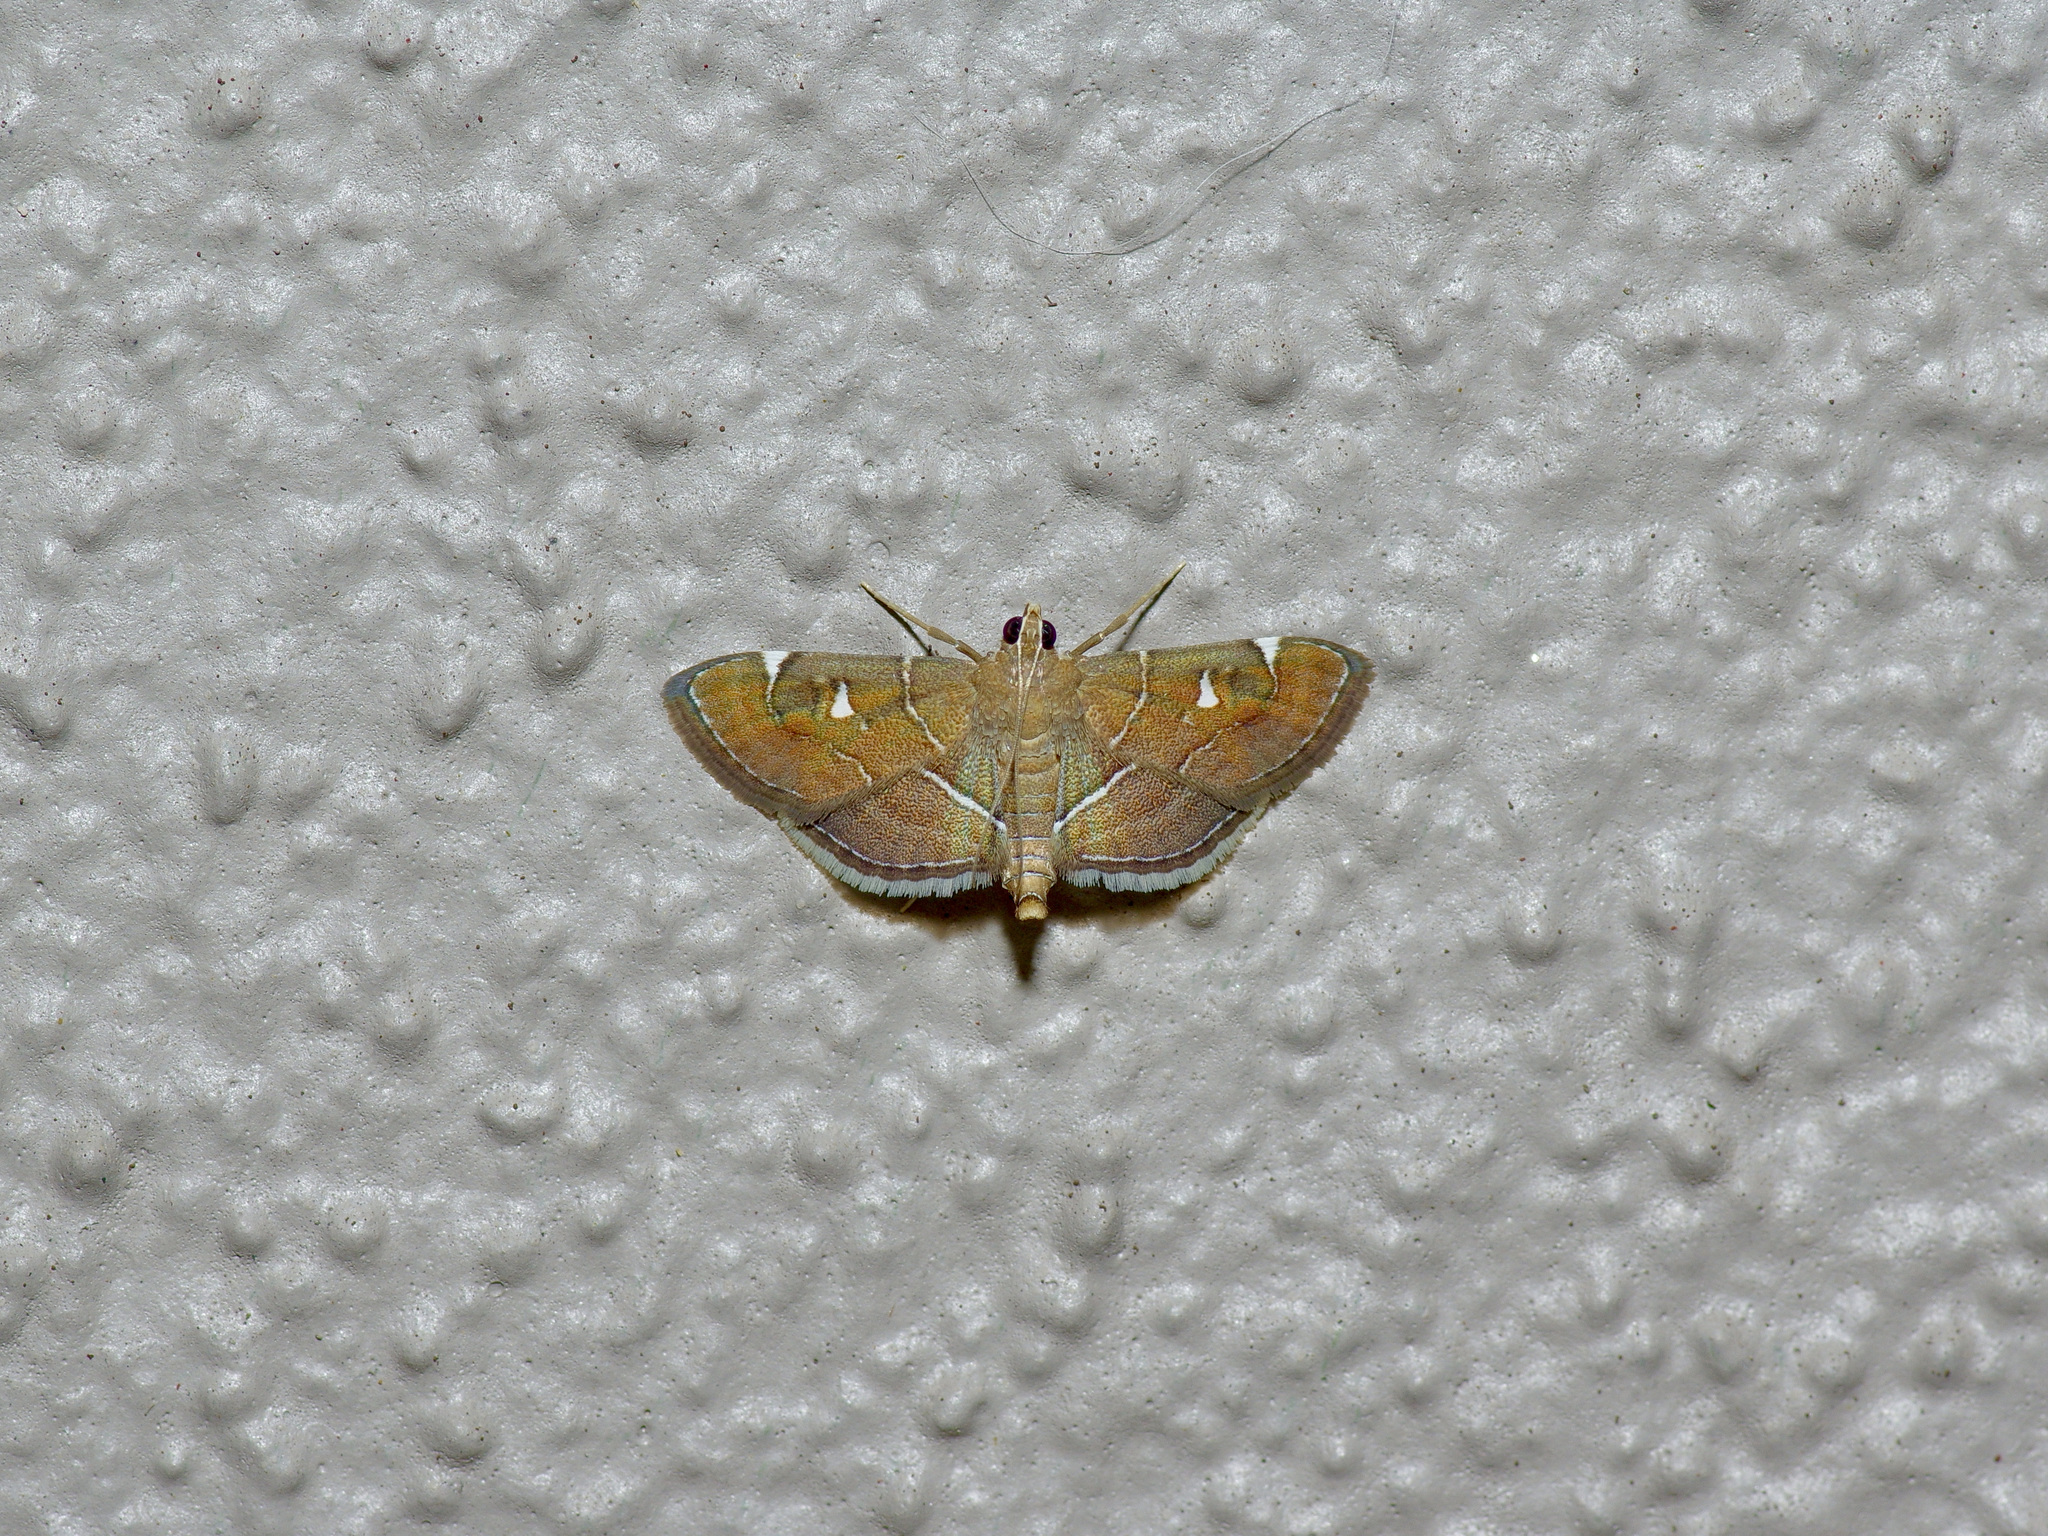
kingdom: Animalia
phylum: Arthropoda
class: Insecta
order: Lepidoptera
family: Crambidae
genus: Lamprosema
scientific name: Lamprosema victoriae
